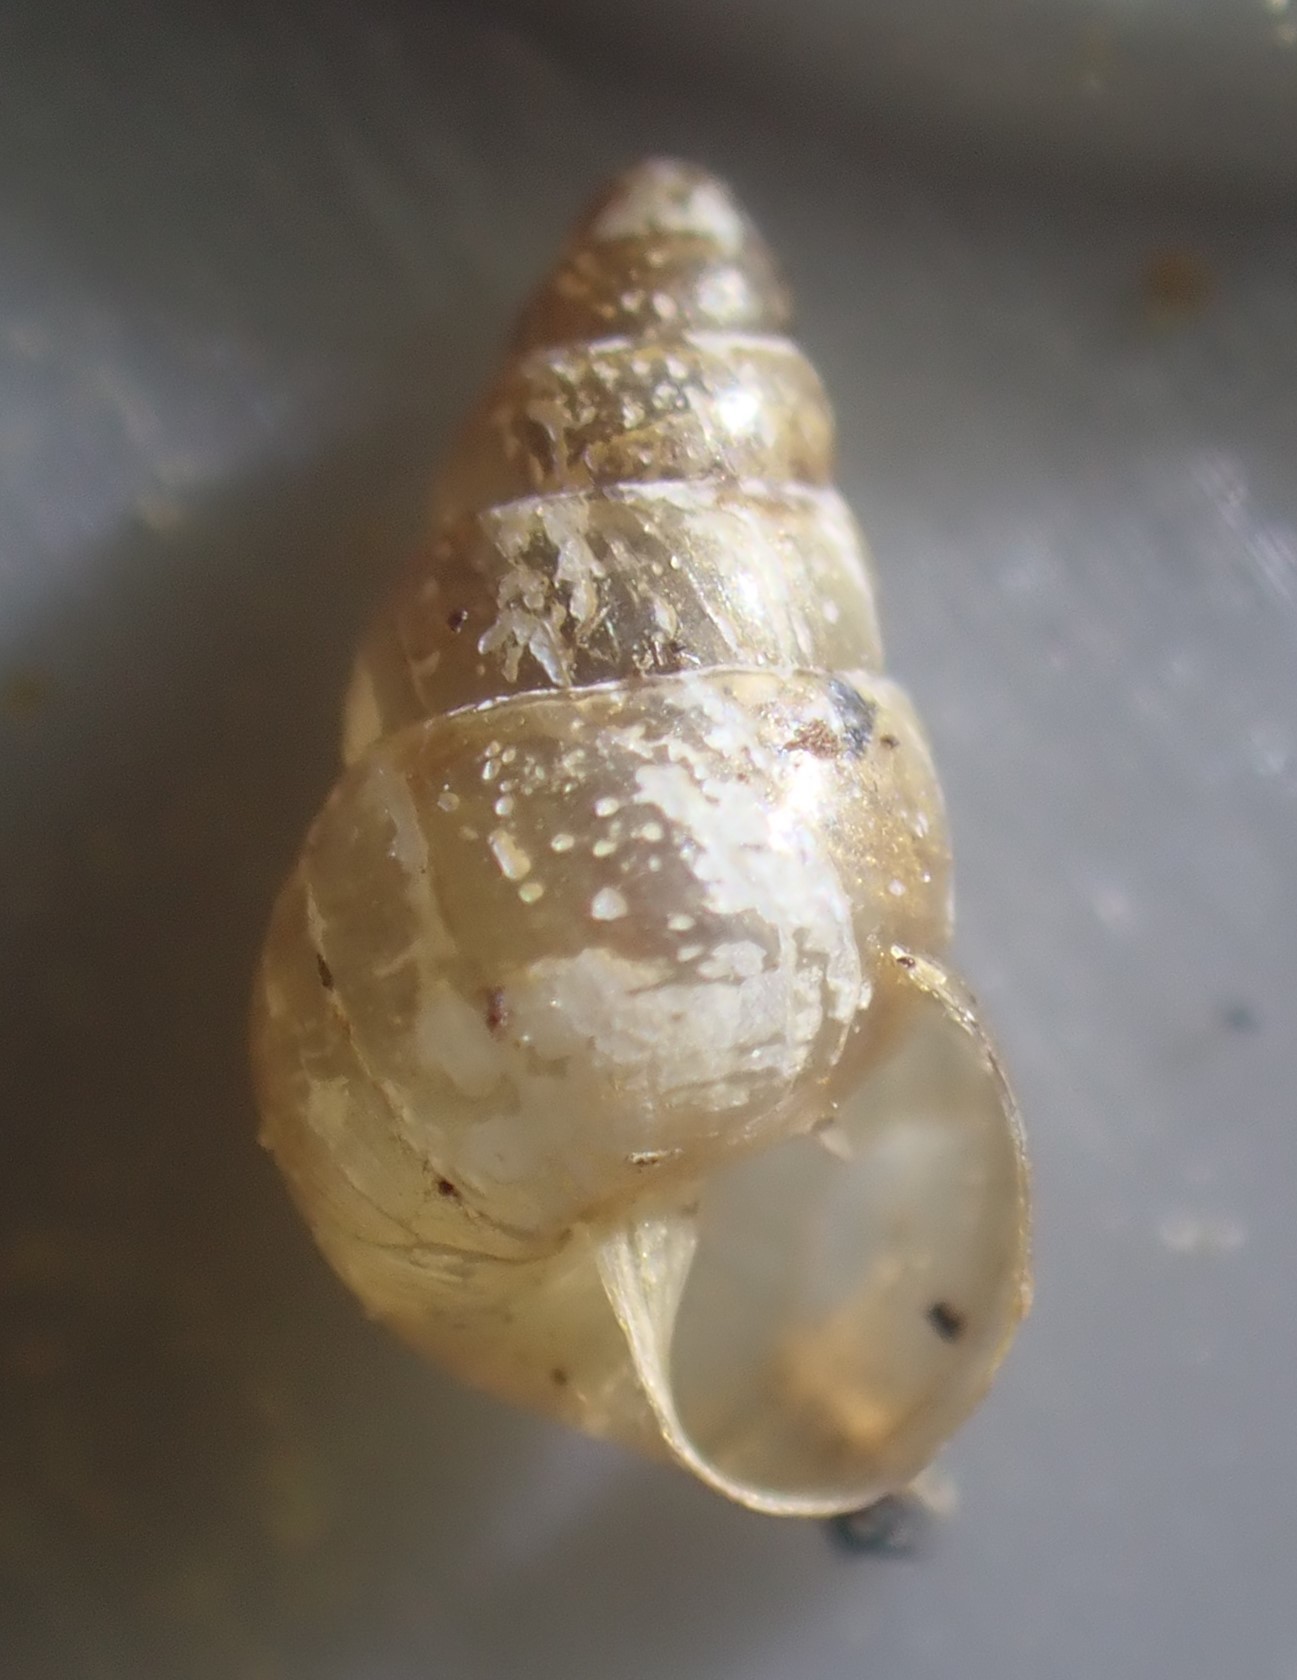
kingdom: Animalia
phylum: Mollusca
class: Gastropoda
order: Stylommatophora
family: Achatinellidae
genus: Tornatellides
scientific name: Tornatellides subperforatus
